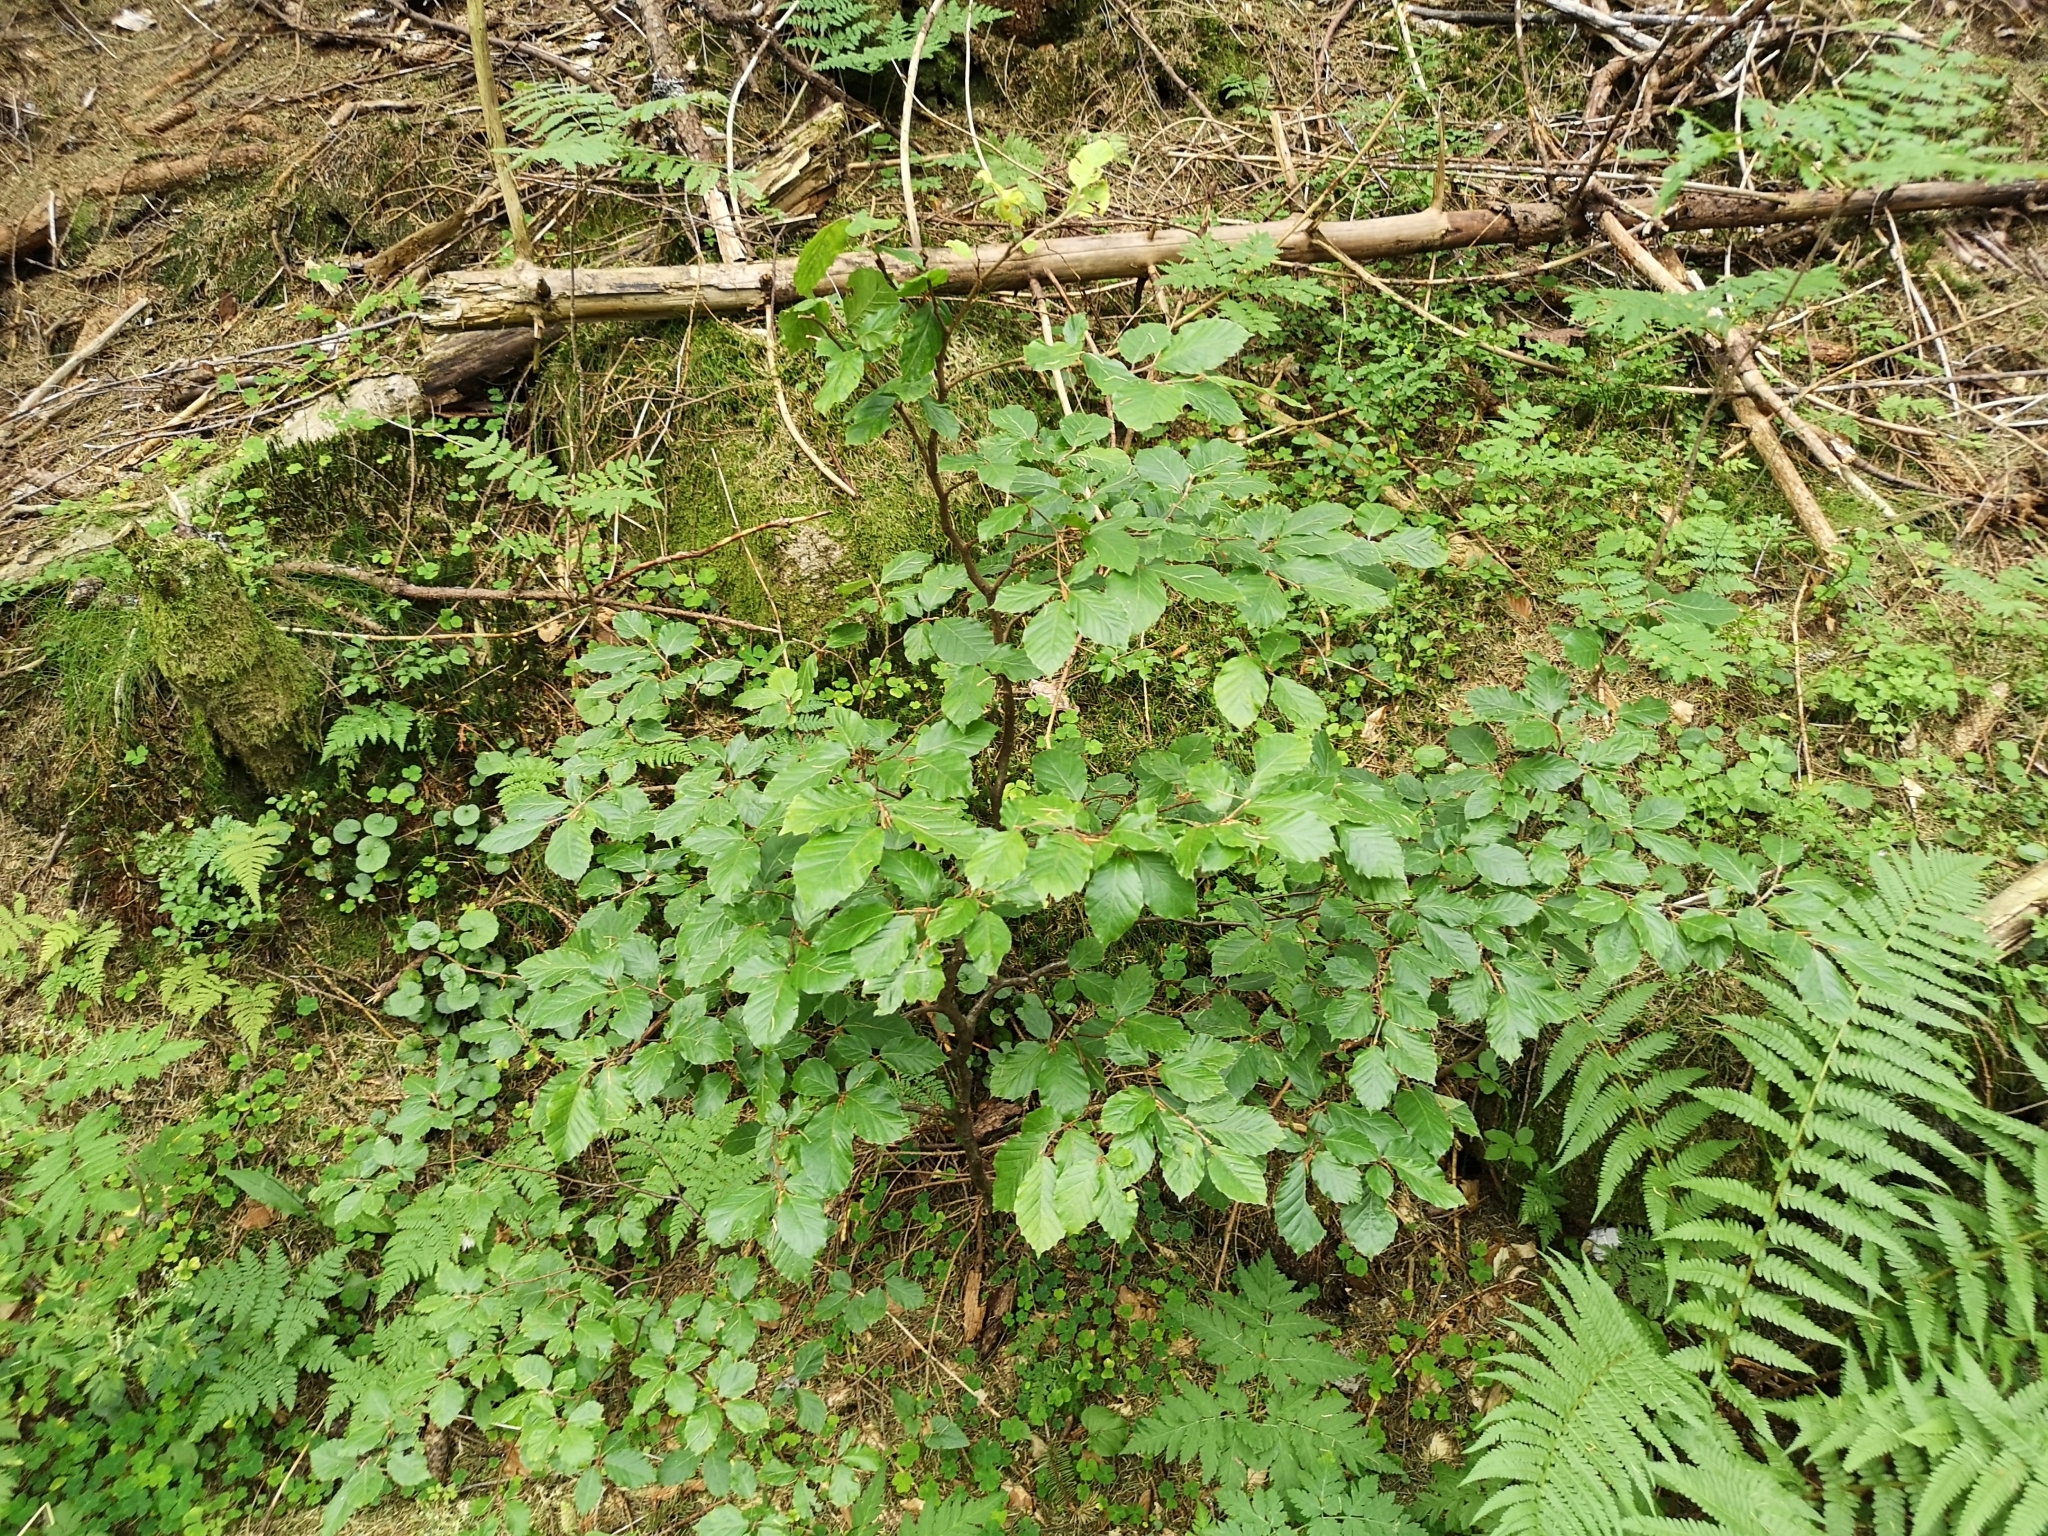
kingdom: Plantae
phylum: Tracheophyta
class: Magnoliopsida
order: Fagales
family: Fagaceae
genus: Fagus
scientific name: Fagus sylvatica
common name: Beech
